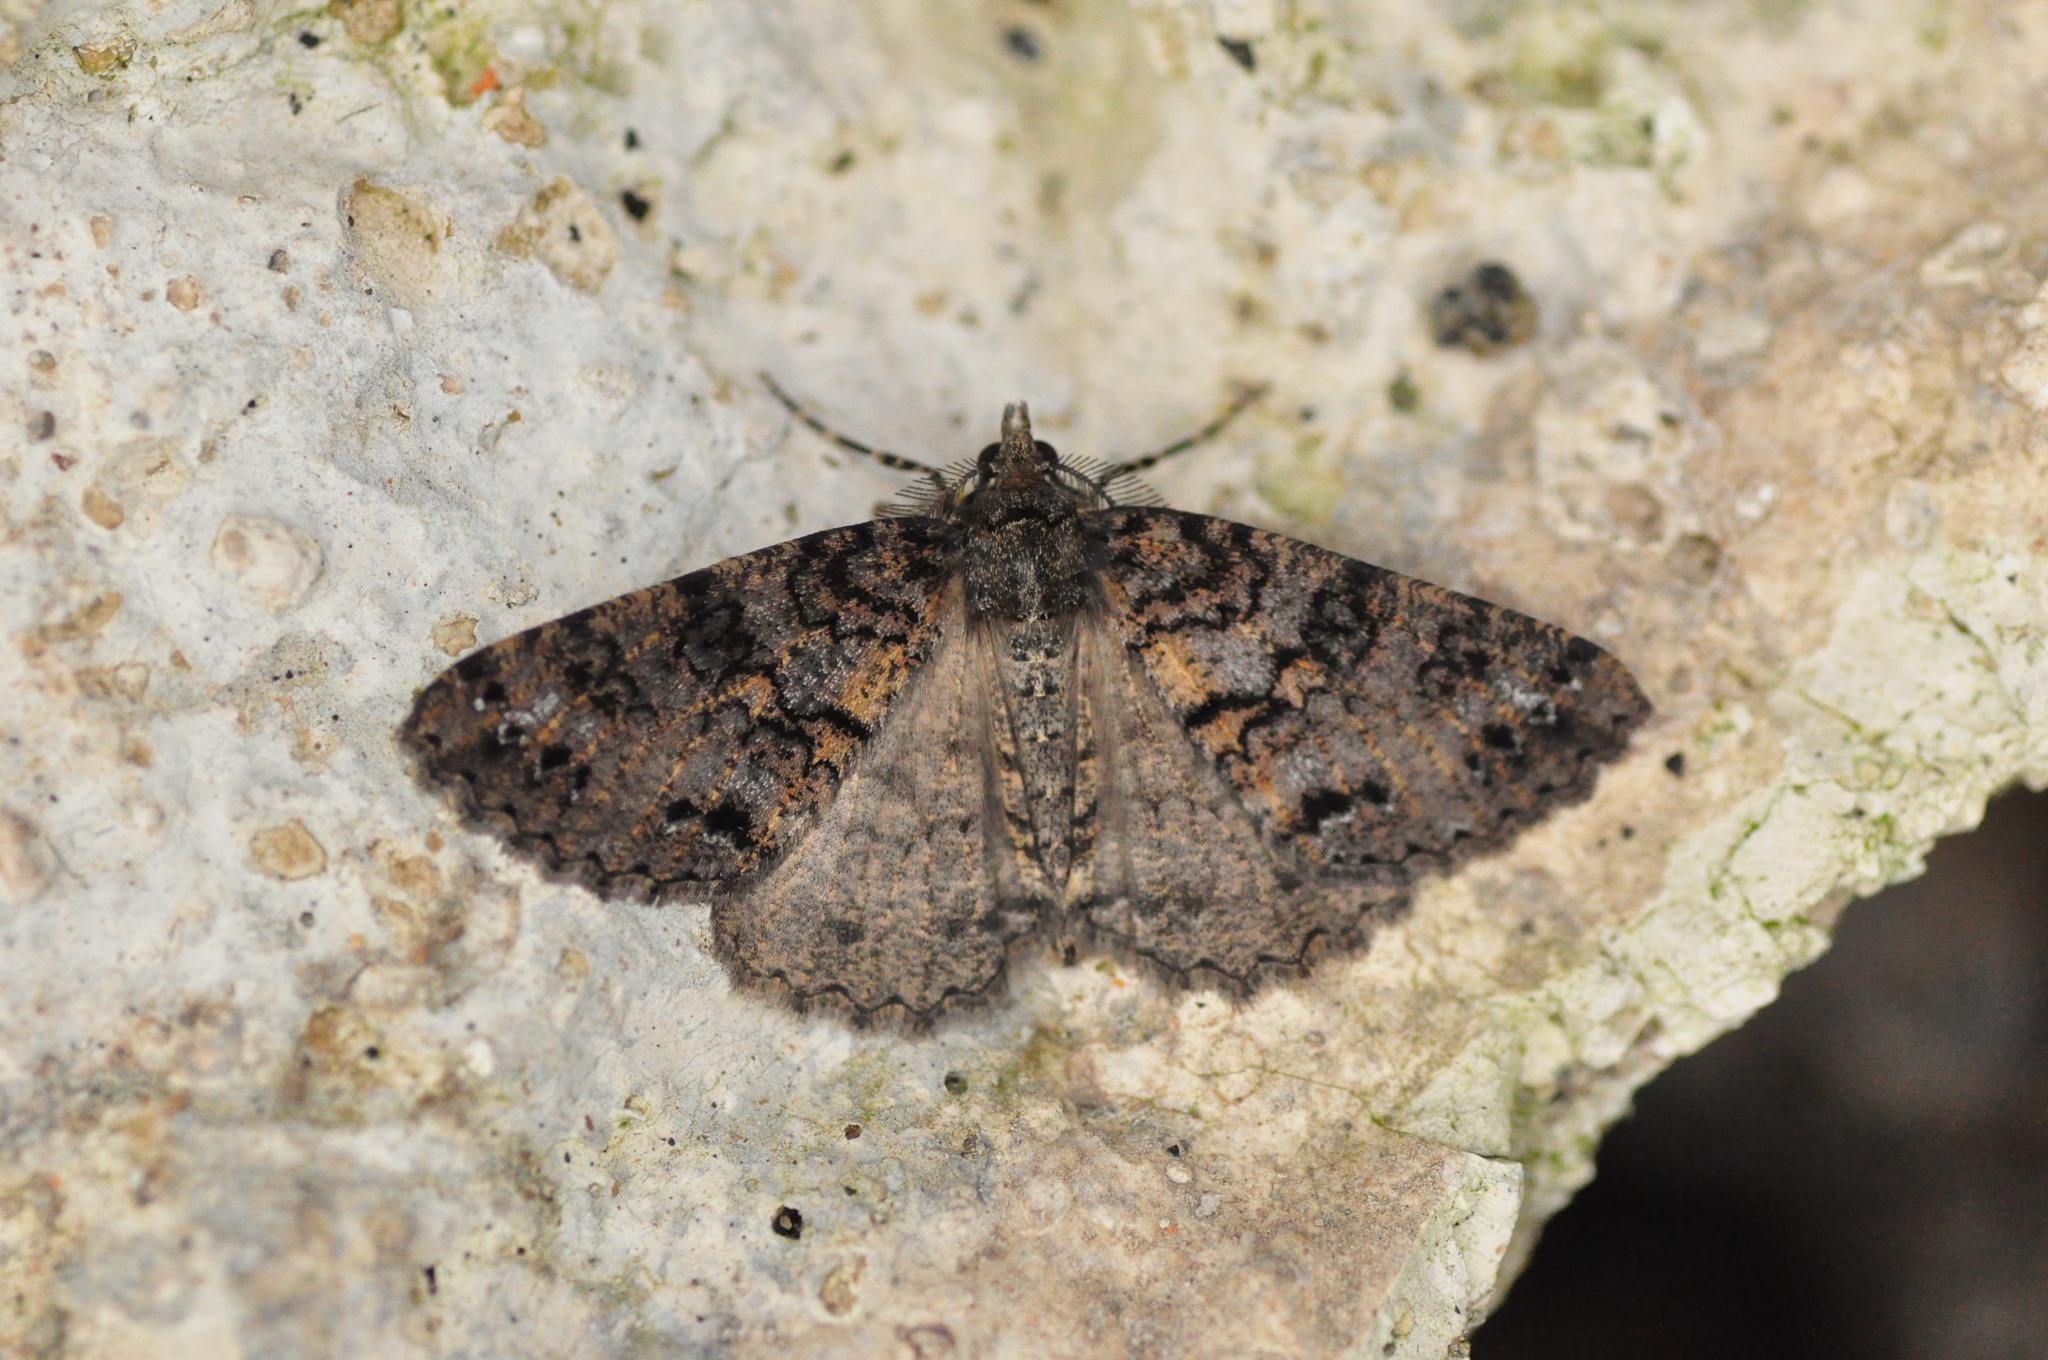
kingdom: Animalia
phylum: Arthropoda
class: Insecta
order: Lepidoptera
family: Geometridae
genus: Ascotis
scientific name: Ascotis fortunata
